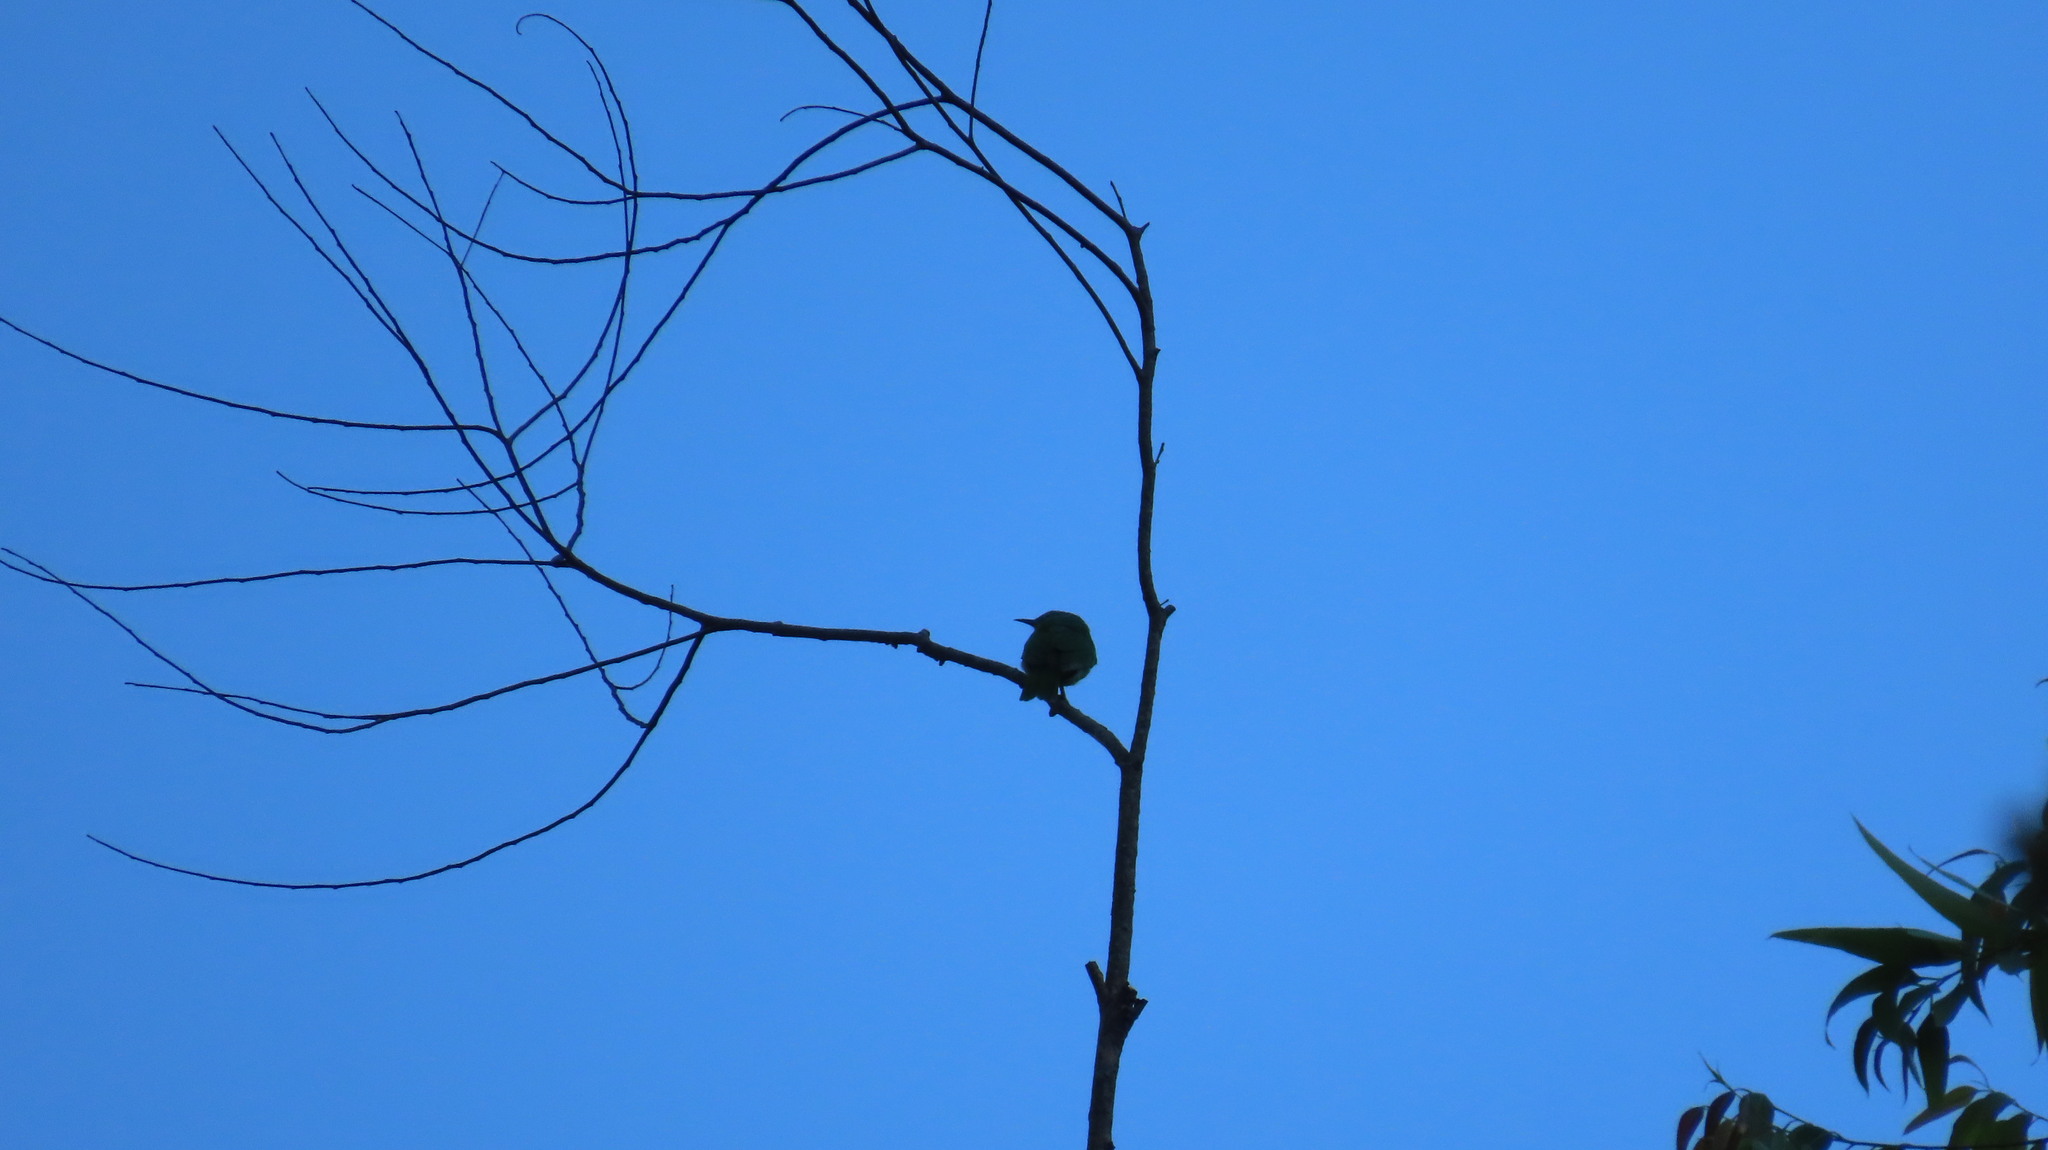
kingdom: Animalia
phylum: Chordata
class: Aves
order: Passeriformes
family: Chloropseidae
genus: Chloropsis
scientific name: Chloropsis aurifrons
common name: Golden-fronted leafbird
